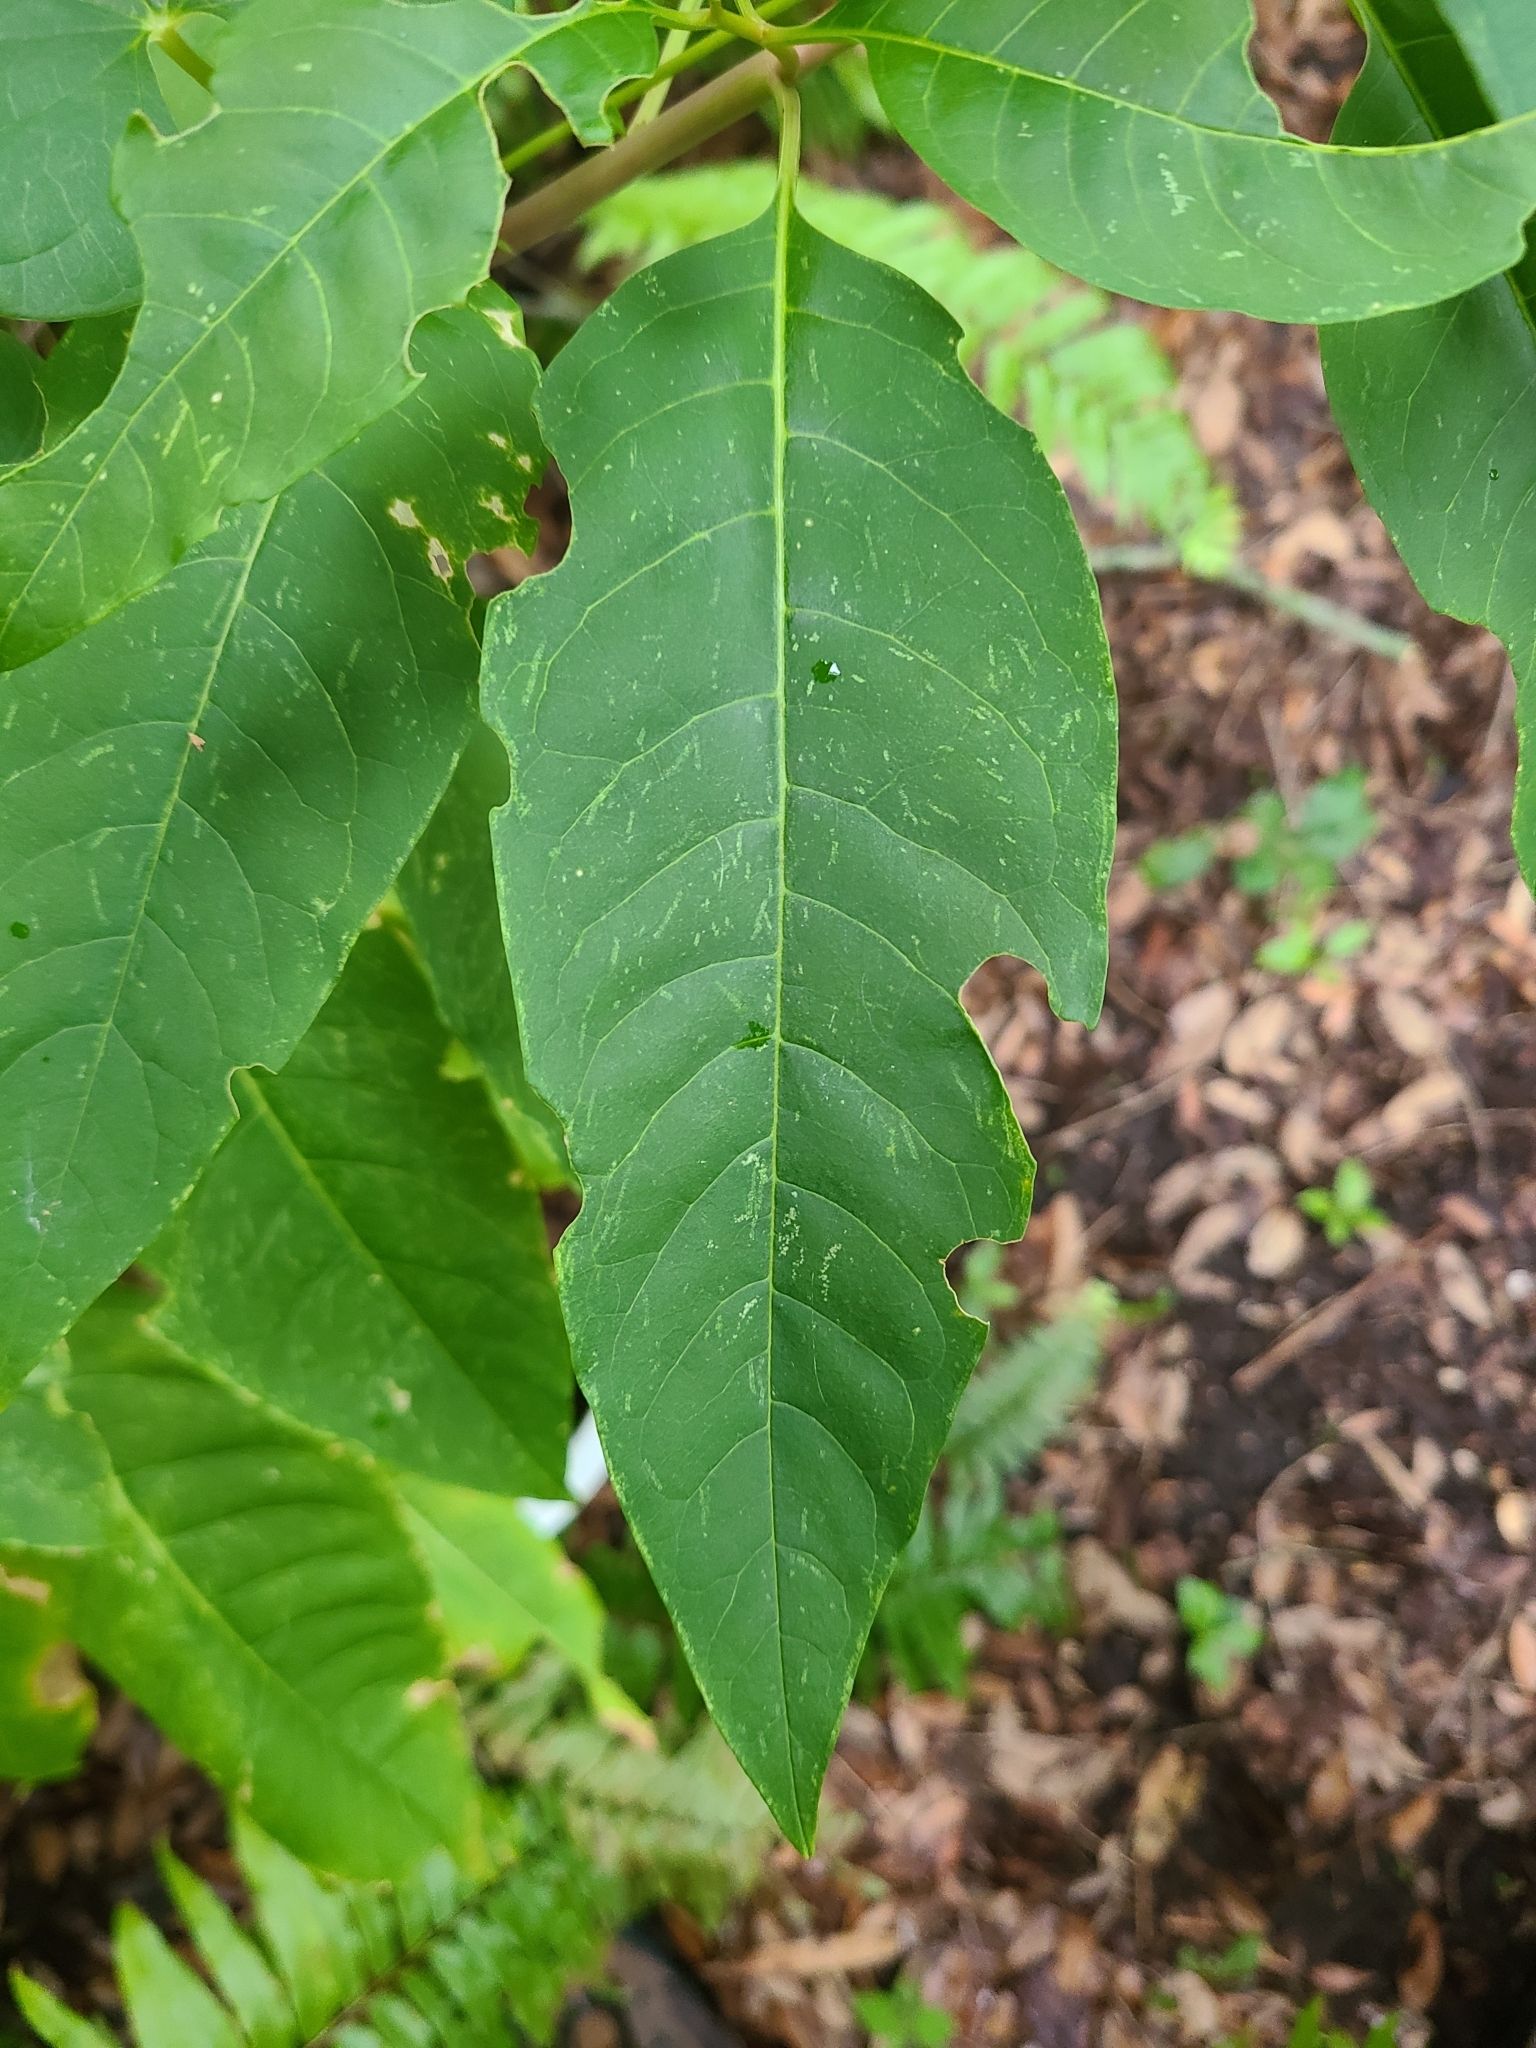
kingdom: Plantae
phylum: Tracheophyta
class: Magnoliopsida
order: Caryophyllales
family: Phytolaccaceae
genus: Phytolacca
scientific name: Phytolacca americana
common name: American pokeweed
